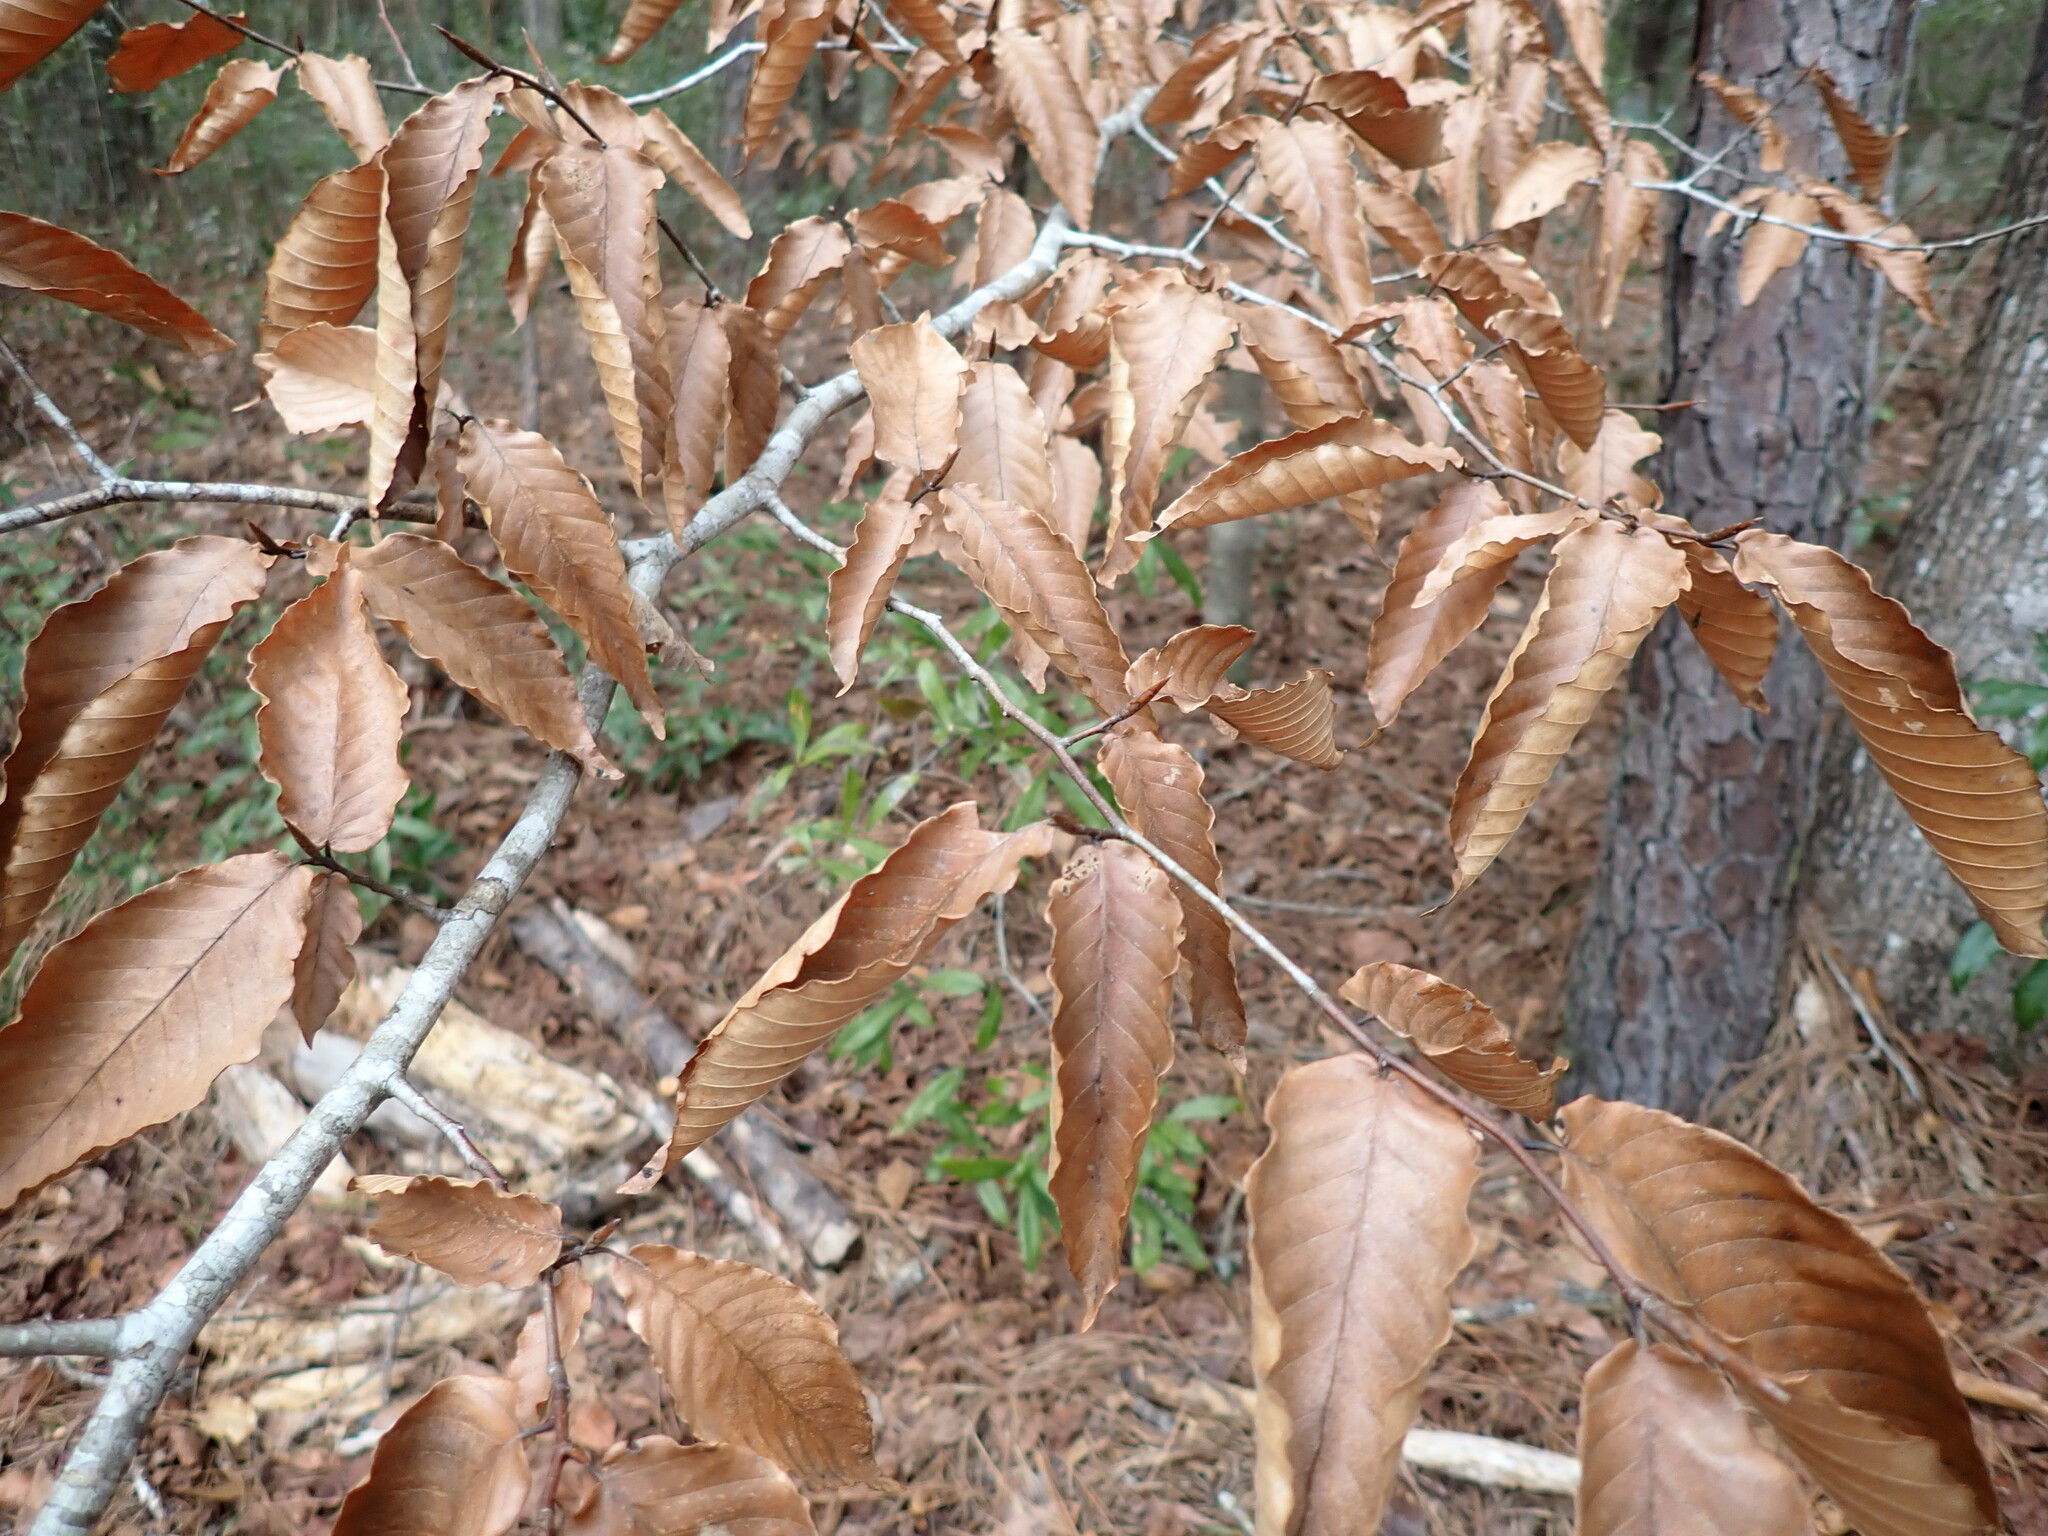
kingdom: Plantae
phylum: Tracheophyta
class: Magnoliopsida
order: Fagales
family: Fagaceae
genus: Fagus
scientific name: Fagus grandifolia
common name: American beech
